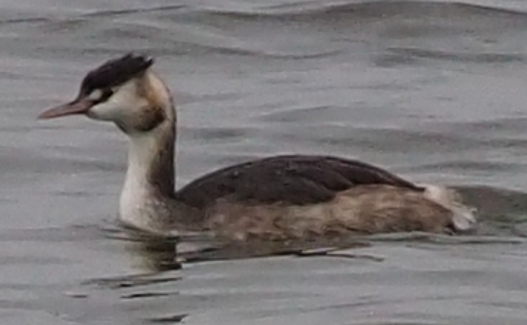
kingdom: Animalia
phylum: Chordata
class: Aves
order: Podicipediformes
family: Podicipedidae
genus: Podiceps
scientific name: Podiceps cristatus
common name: Great crested grebe
